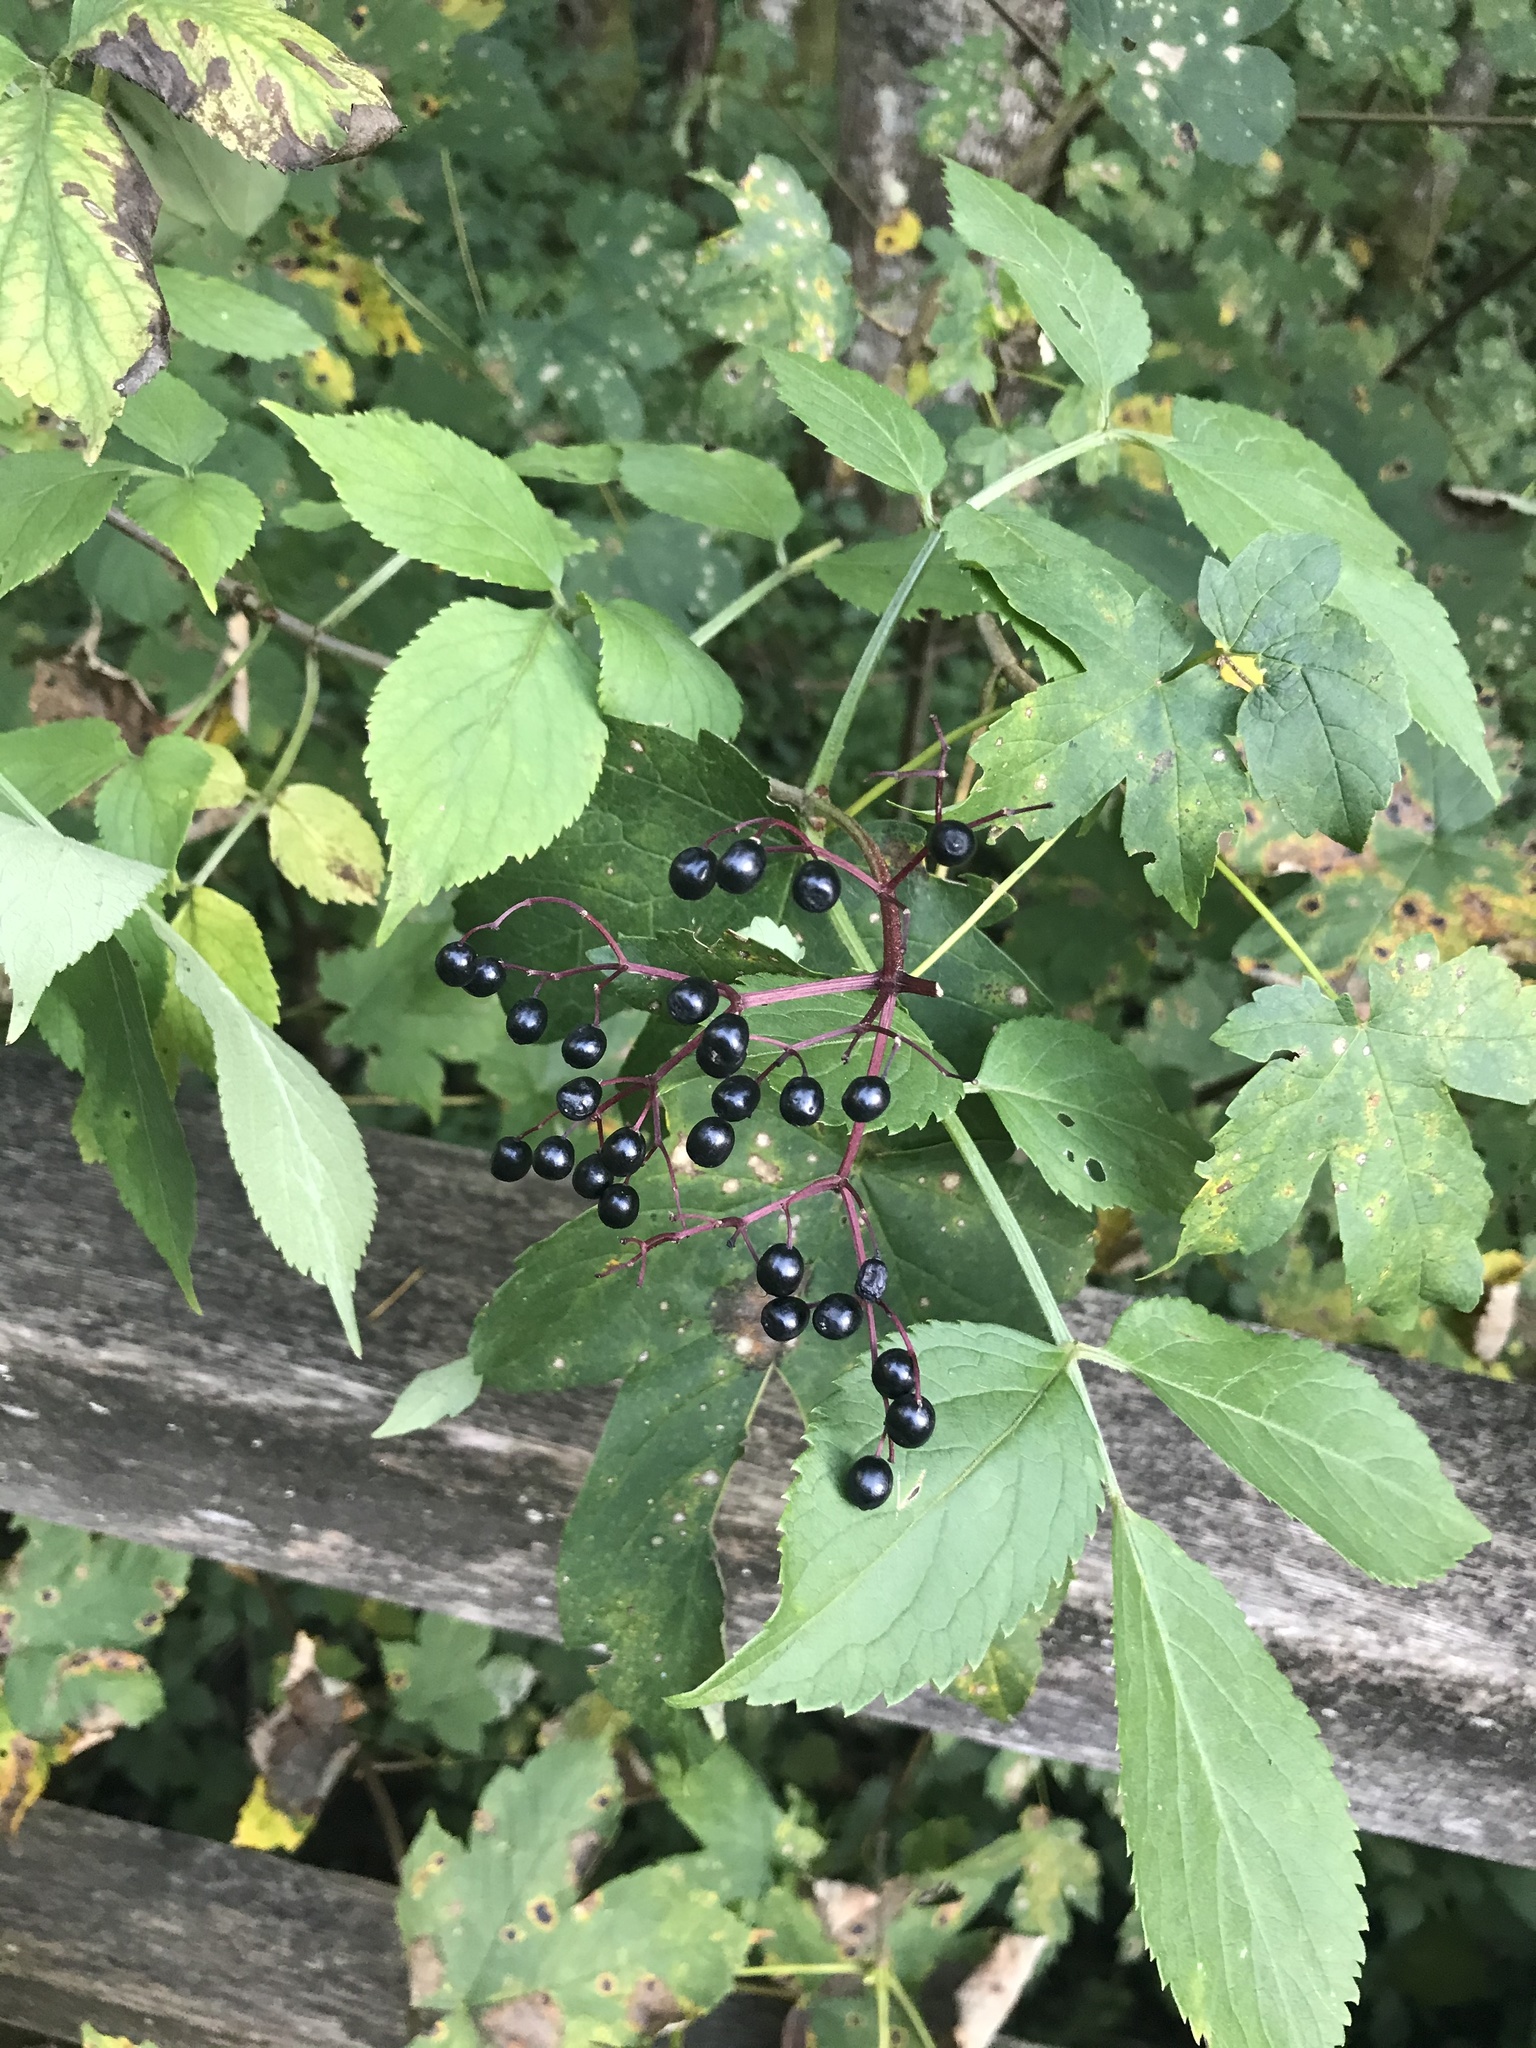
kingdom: Plantae
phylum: Tracheophyta
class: Magnoliopsida
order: Dipsacales
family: Viburnaceae
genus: Sambucus
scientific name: Sambucus nigra
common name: Elder
